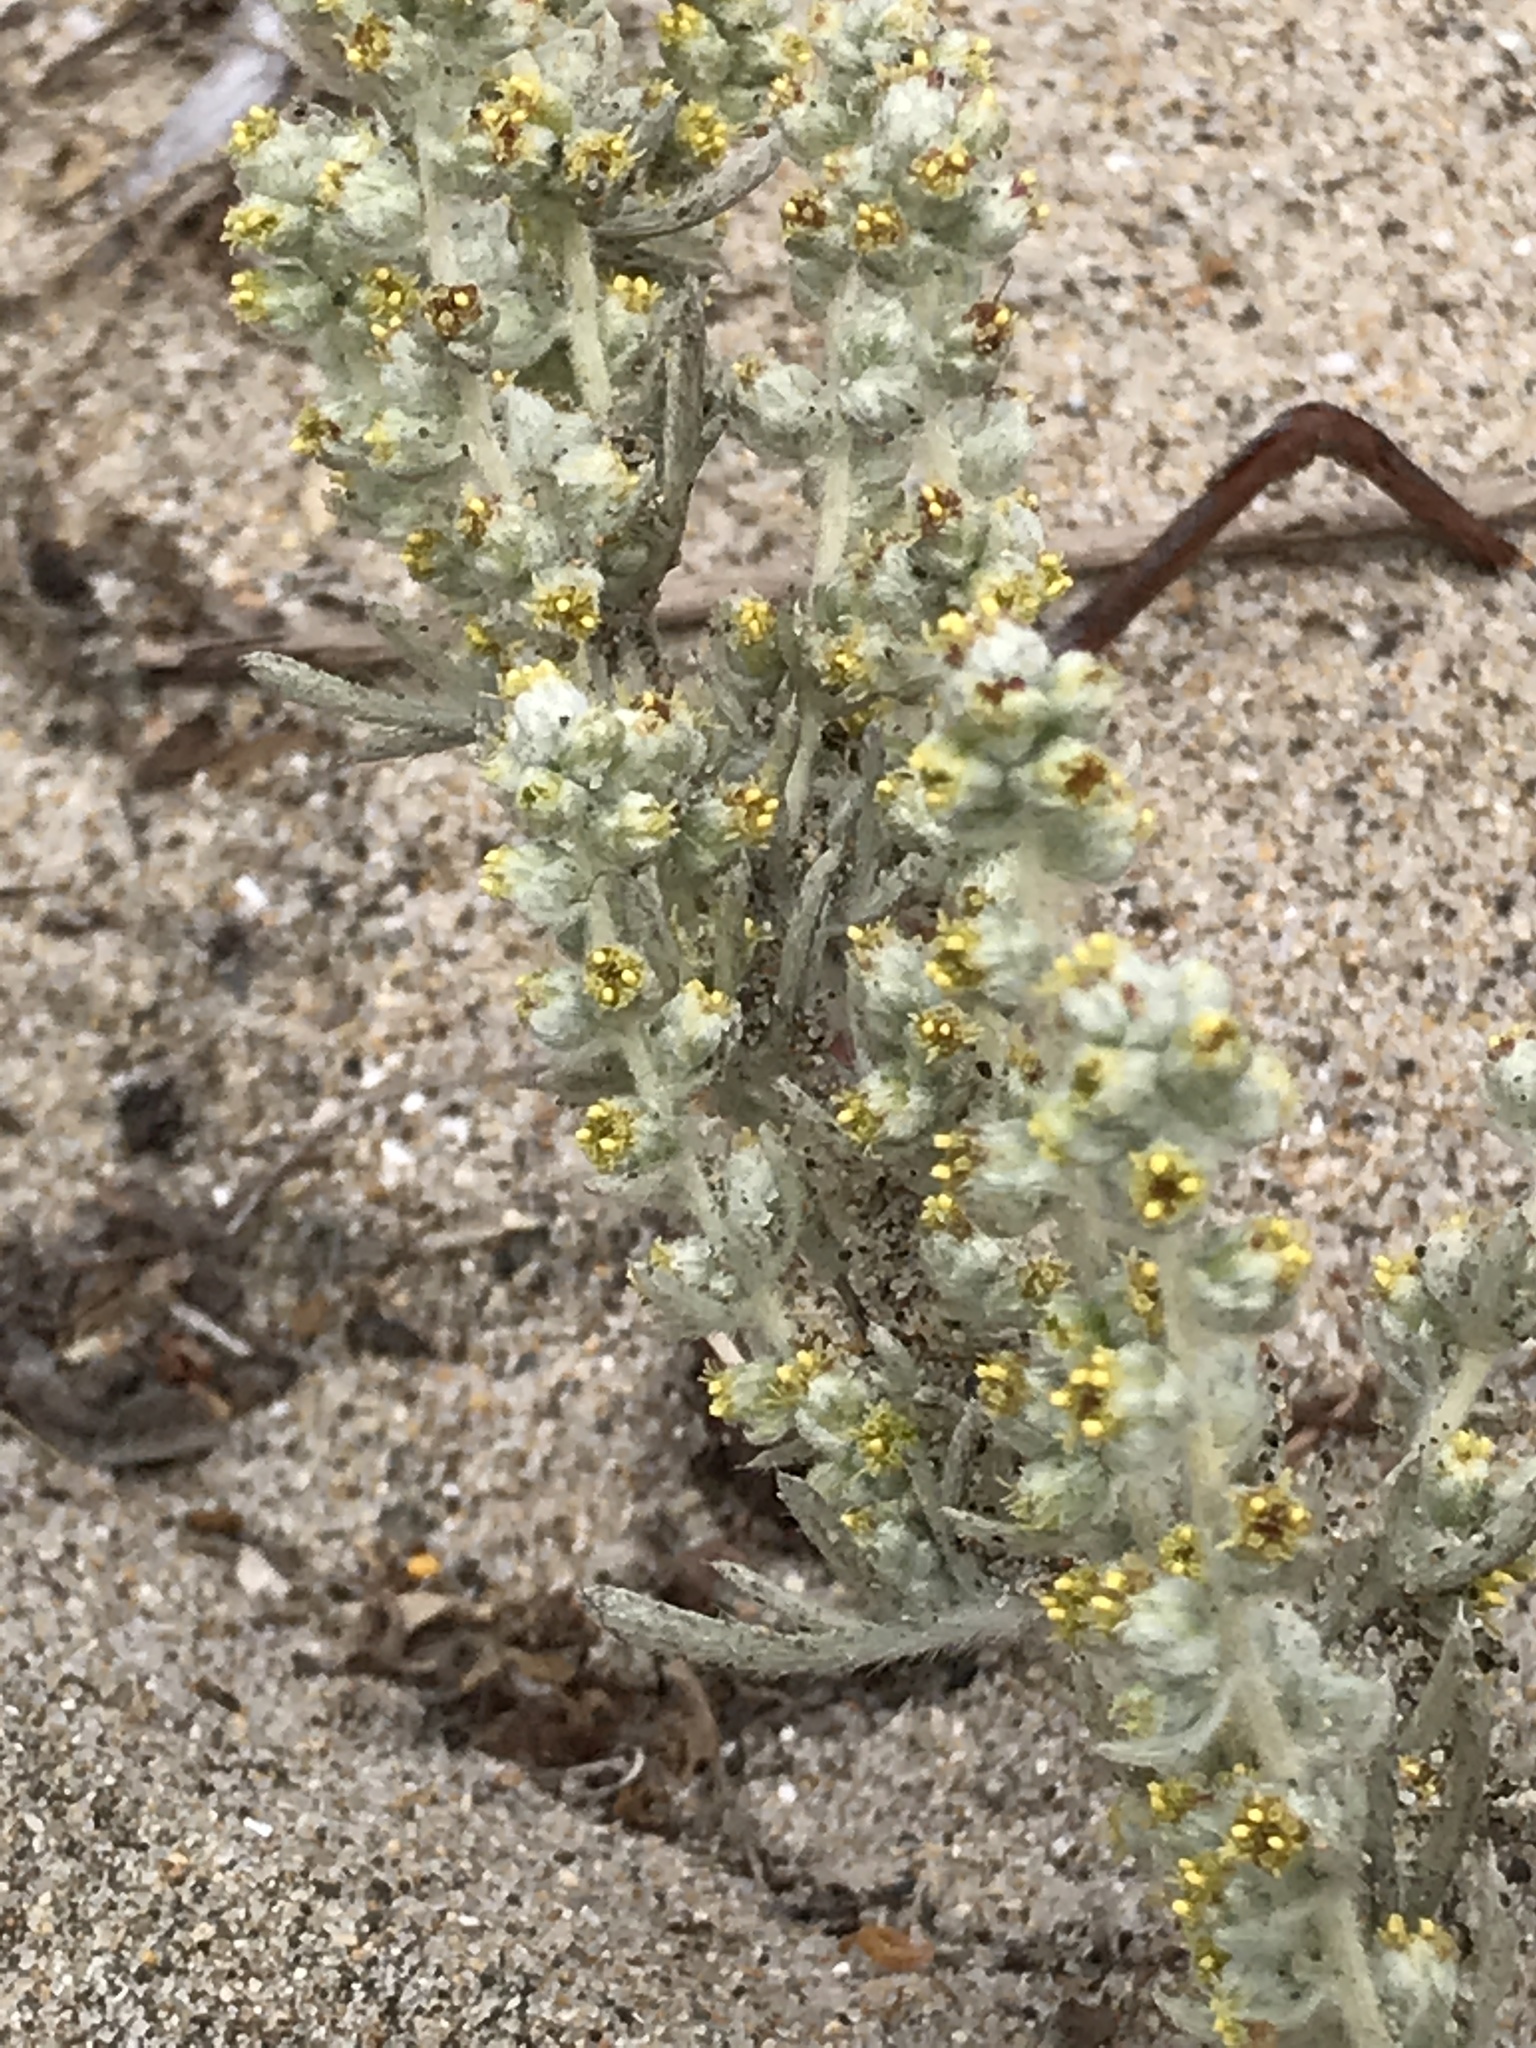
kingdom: Plantae
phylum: Tracheophyta
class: Magnoliopsida
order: Asterales
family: Asteraceae
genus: Artemisia
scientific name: Artemisia pycnocephala
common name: Coastal sagewort
